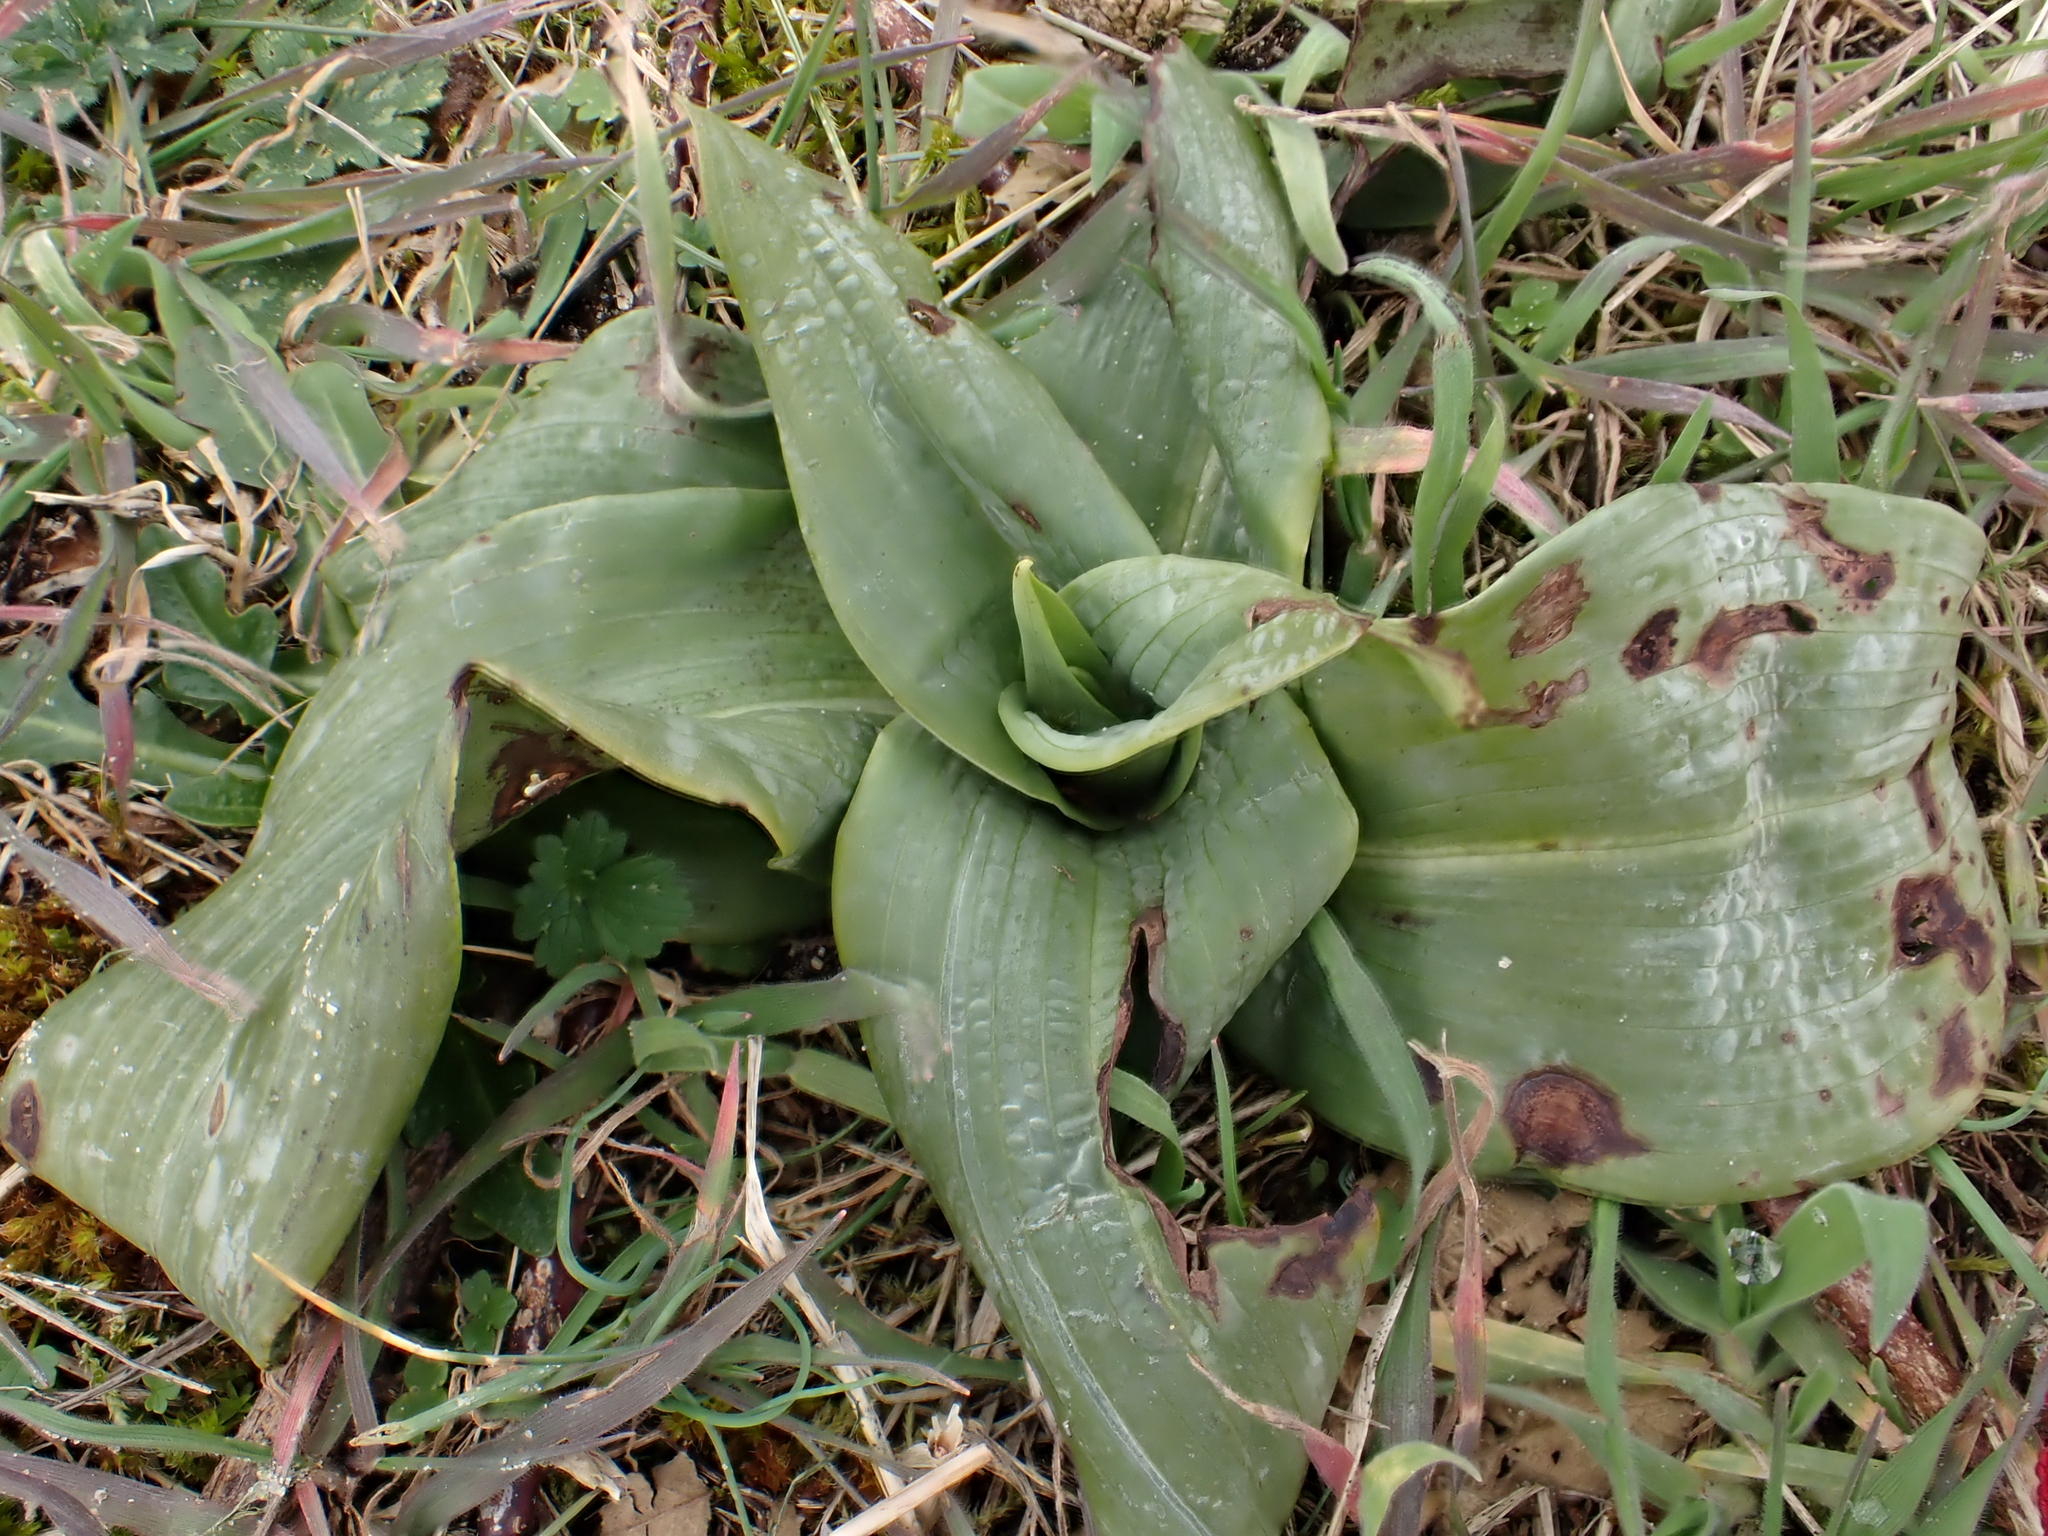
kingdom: Plantae
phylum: Tracheophyta
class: Liliopsida
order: Asparagales
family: Orchidaceae
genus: Himantoglossum
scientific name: Himantoglossum hircinum
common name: Lizard orchid
